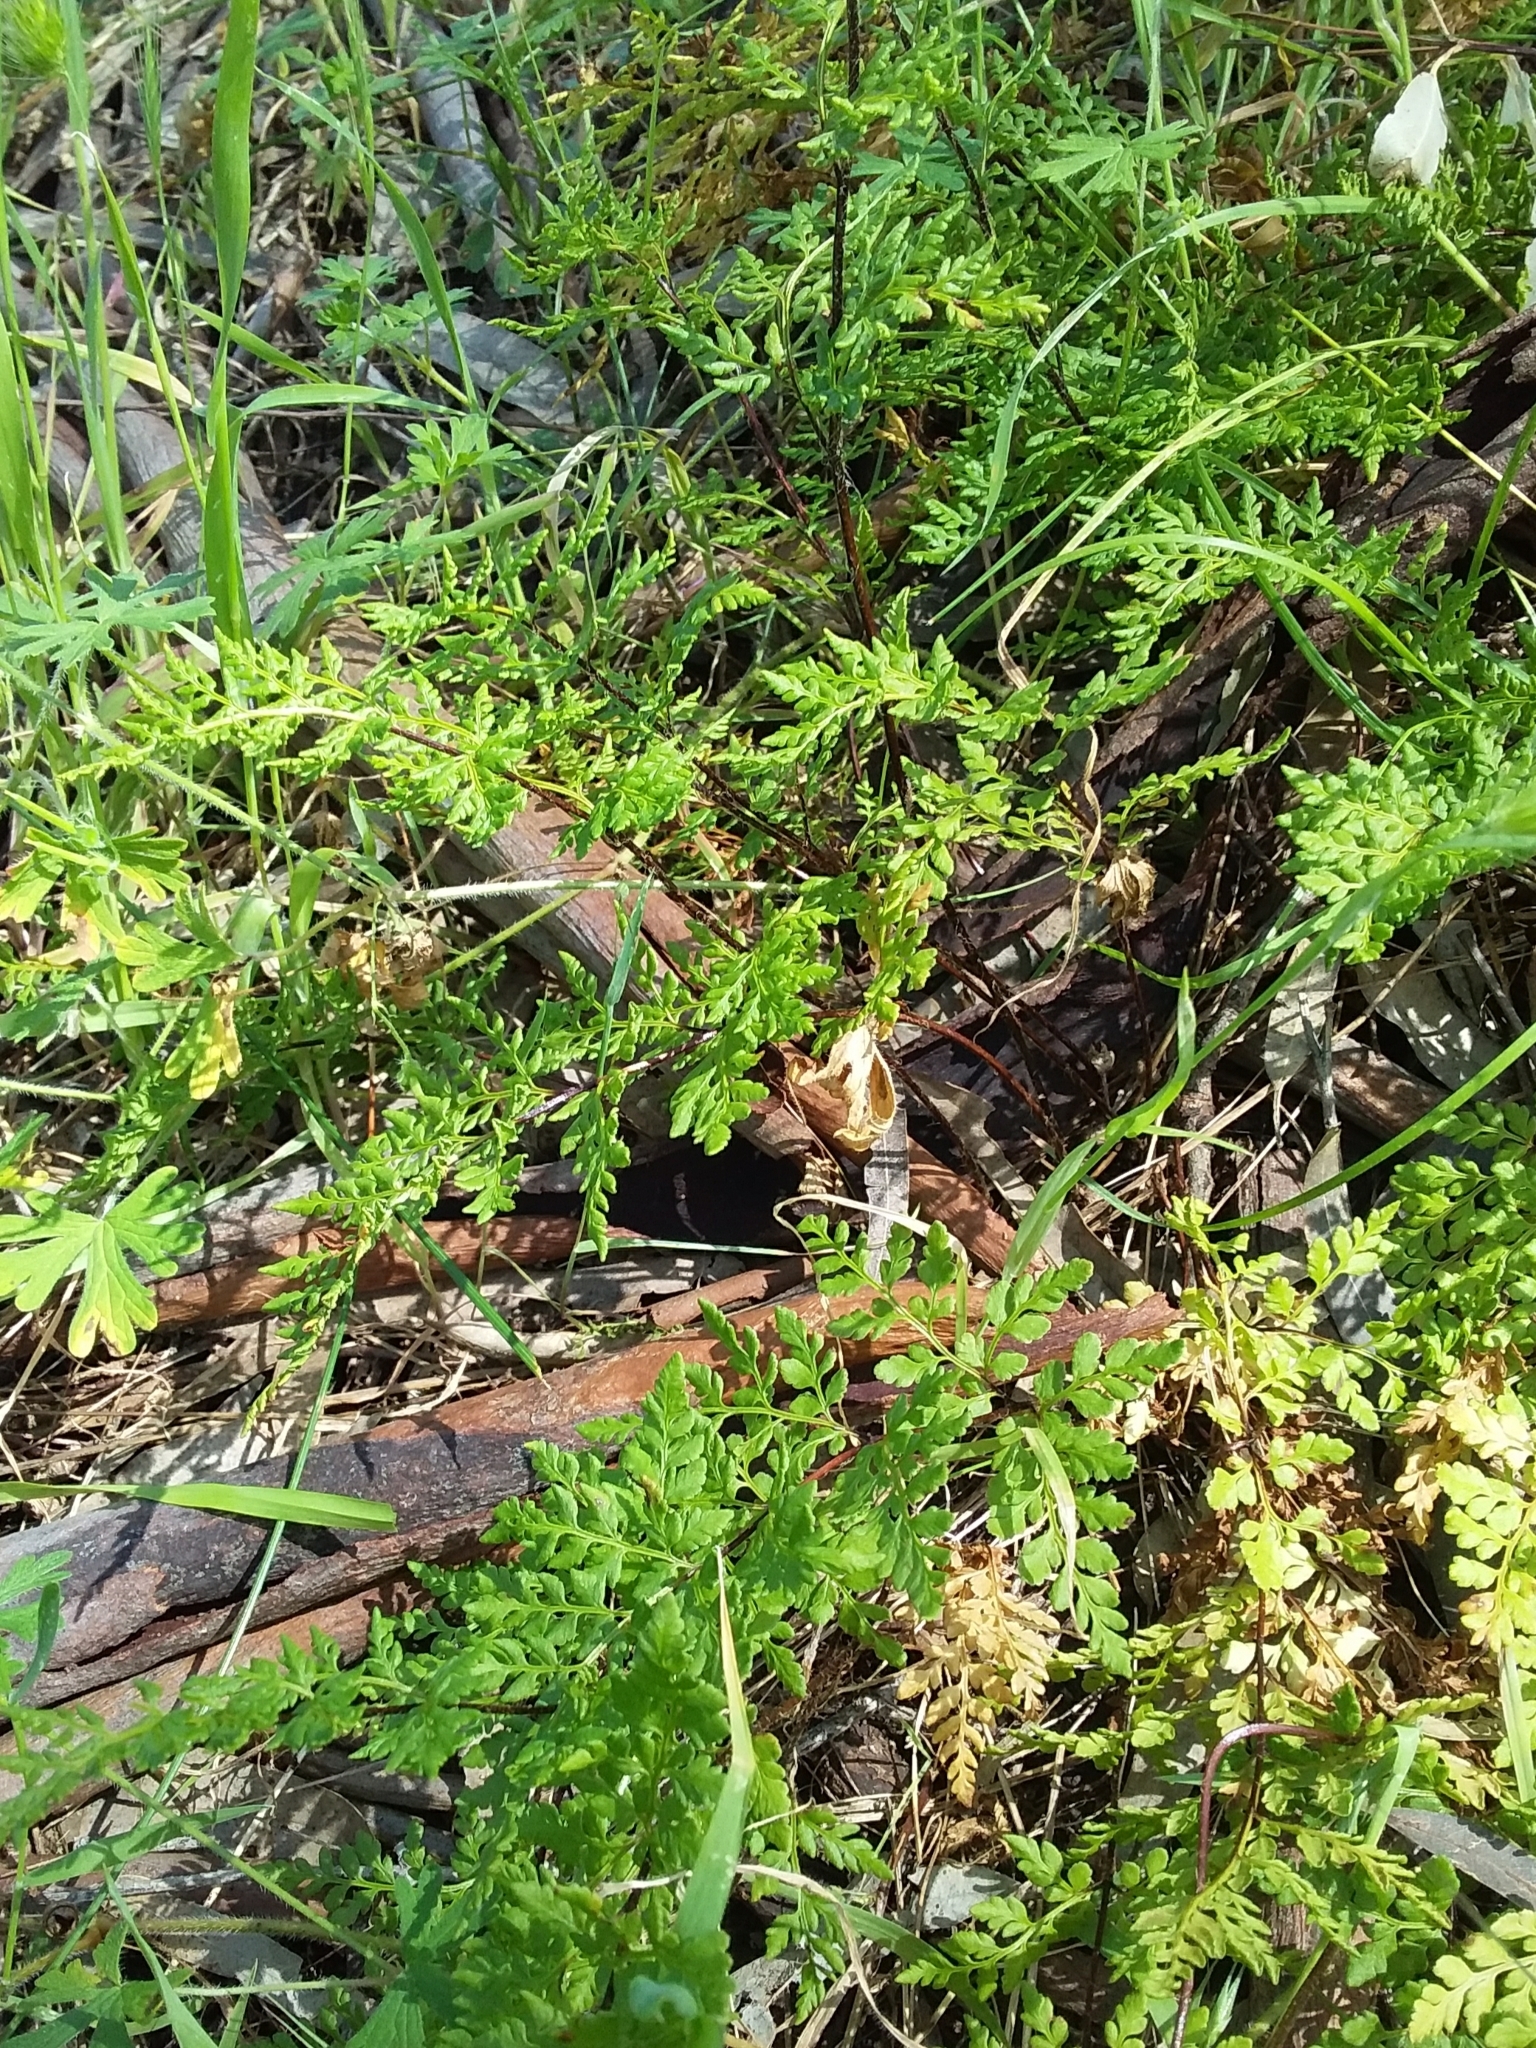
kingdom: Plantae
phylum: Tracheophyta
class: Polypodiopsida
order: Polypodiales
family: Pteridaceae
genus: Cheilanthes
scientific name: Cheilanthes austrotenuifolia
